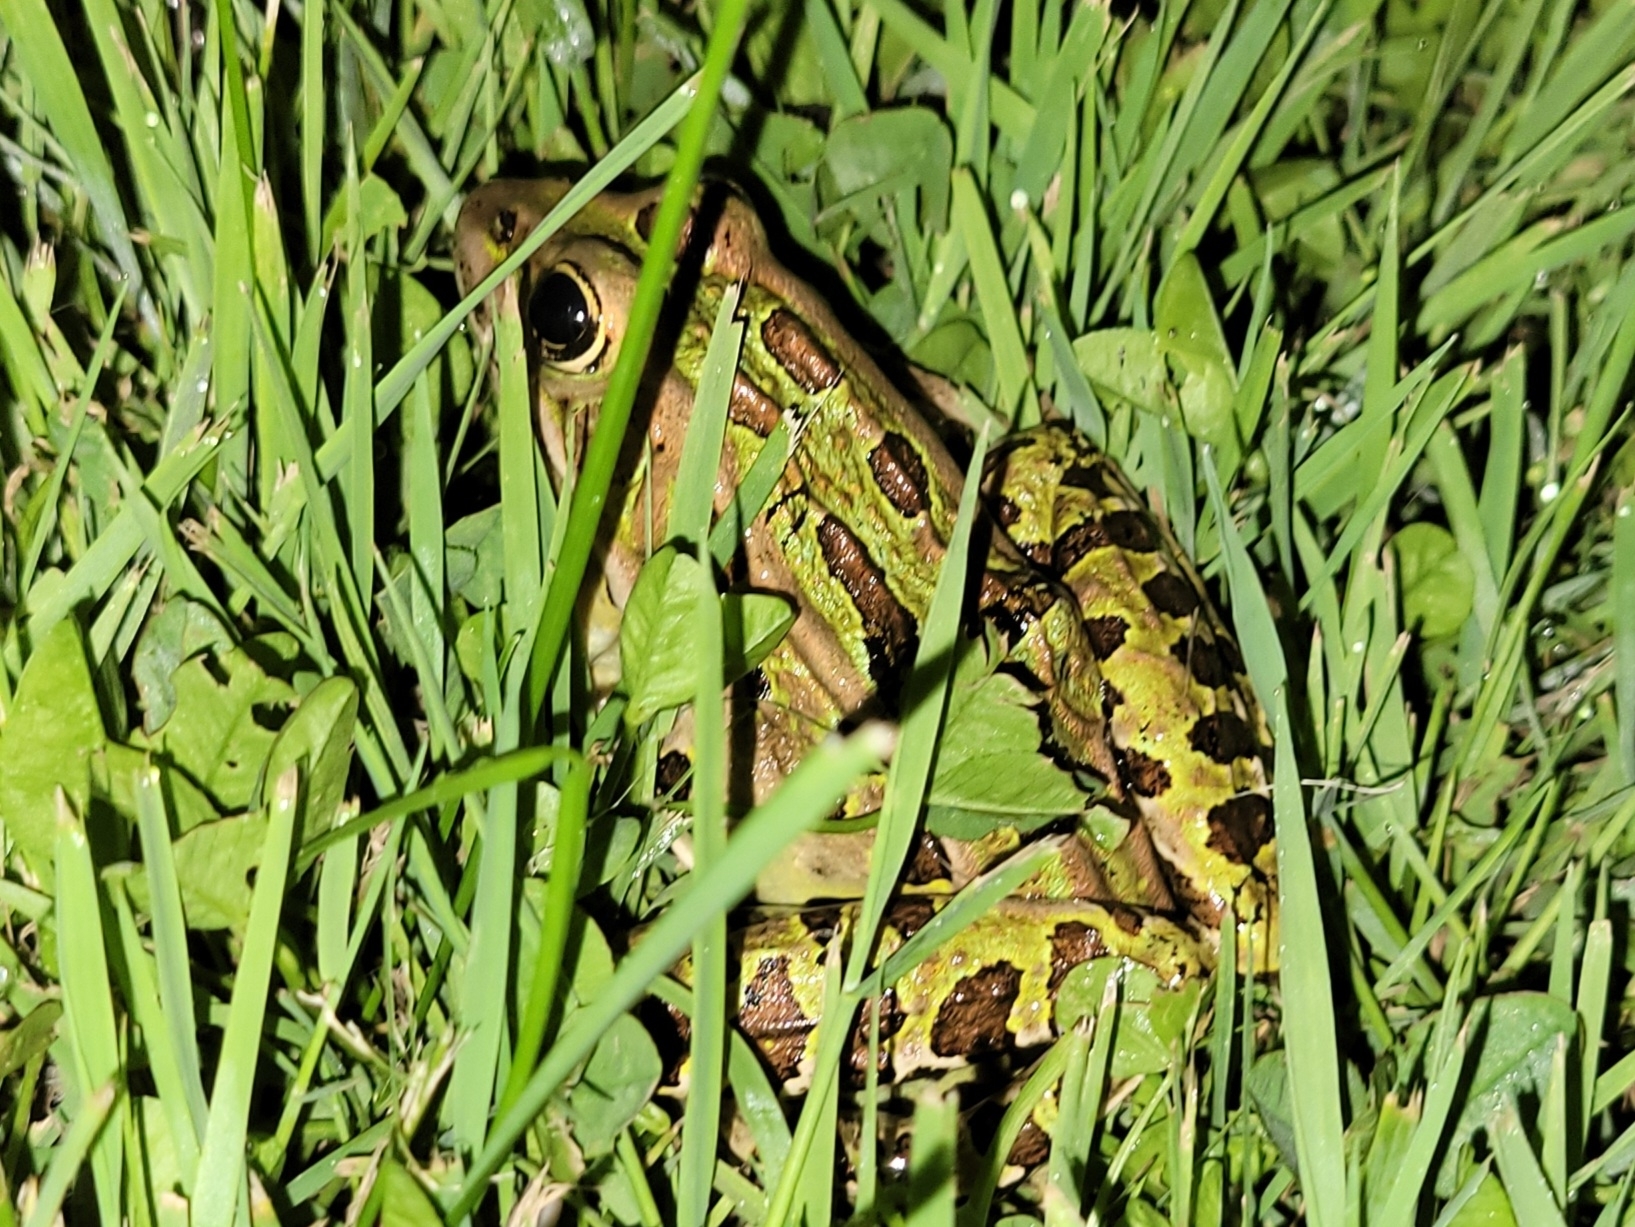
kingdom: Animalia
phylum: Chordata
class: Amphibia
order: Anura
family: Ranidae
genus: Lithobates
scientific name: Lithobates pipiens
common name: Northern leopard frog
